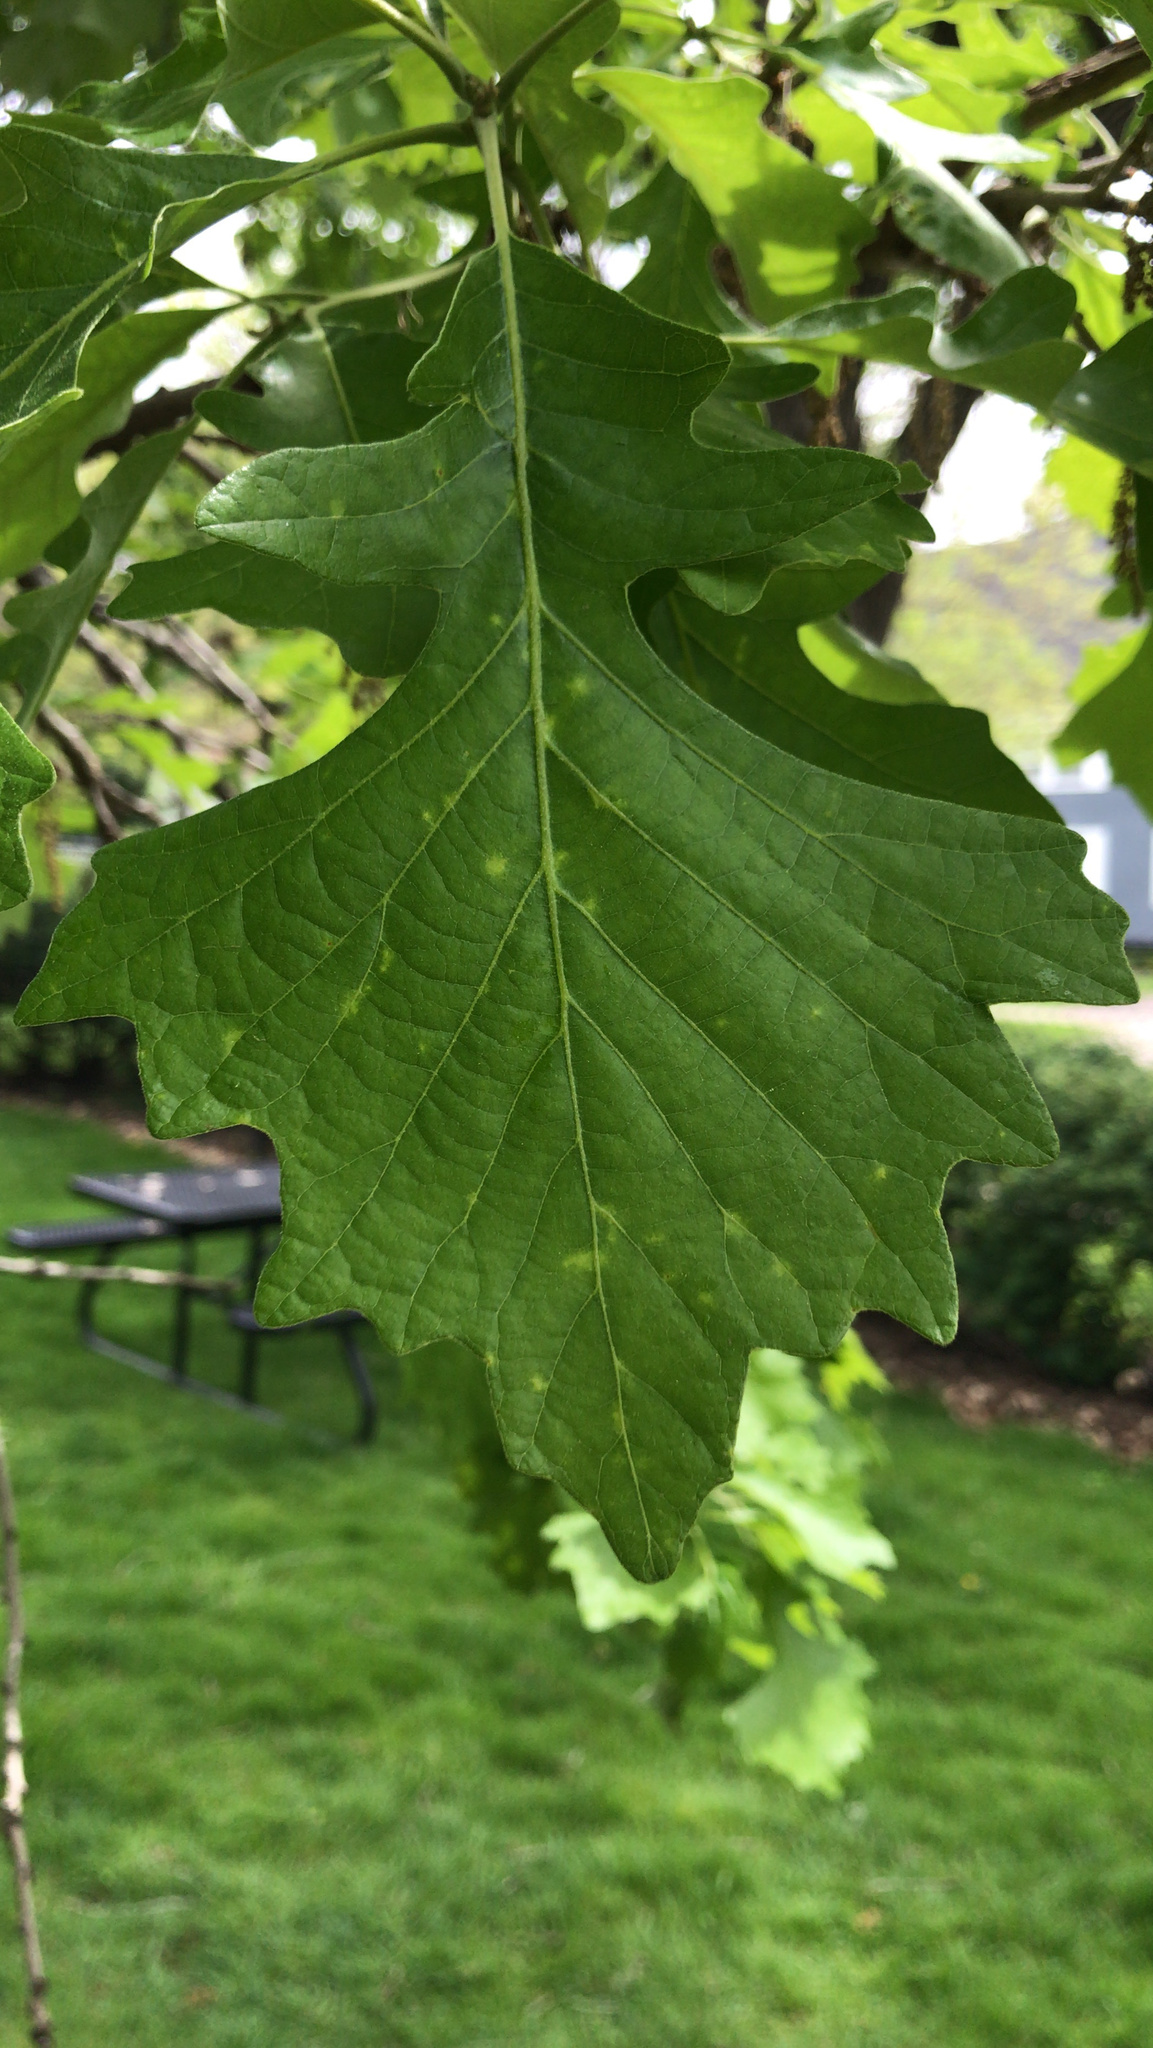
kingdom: Plantae
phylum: Tracheophyta
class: Magnoliopsida
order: Fagales
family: Fagaceae
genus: Quercus
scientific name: Quercus macrocarpa
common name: Bur oak
